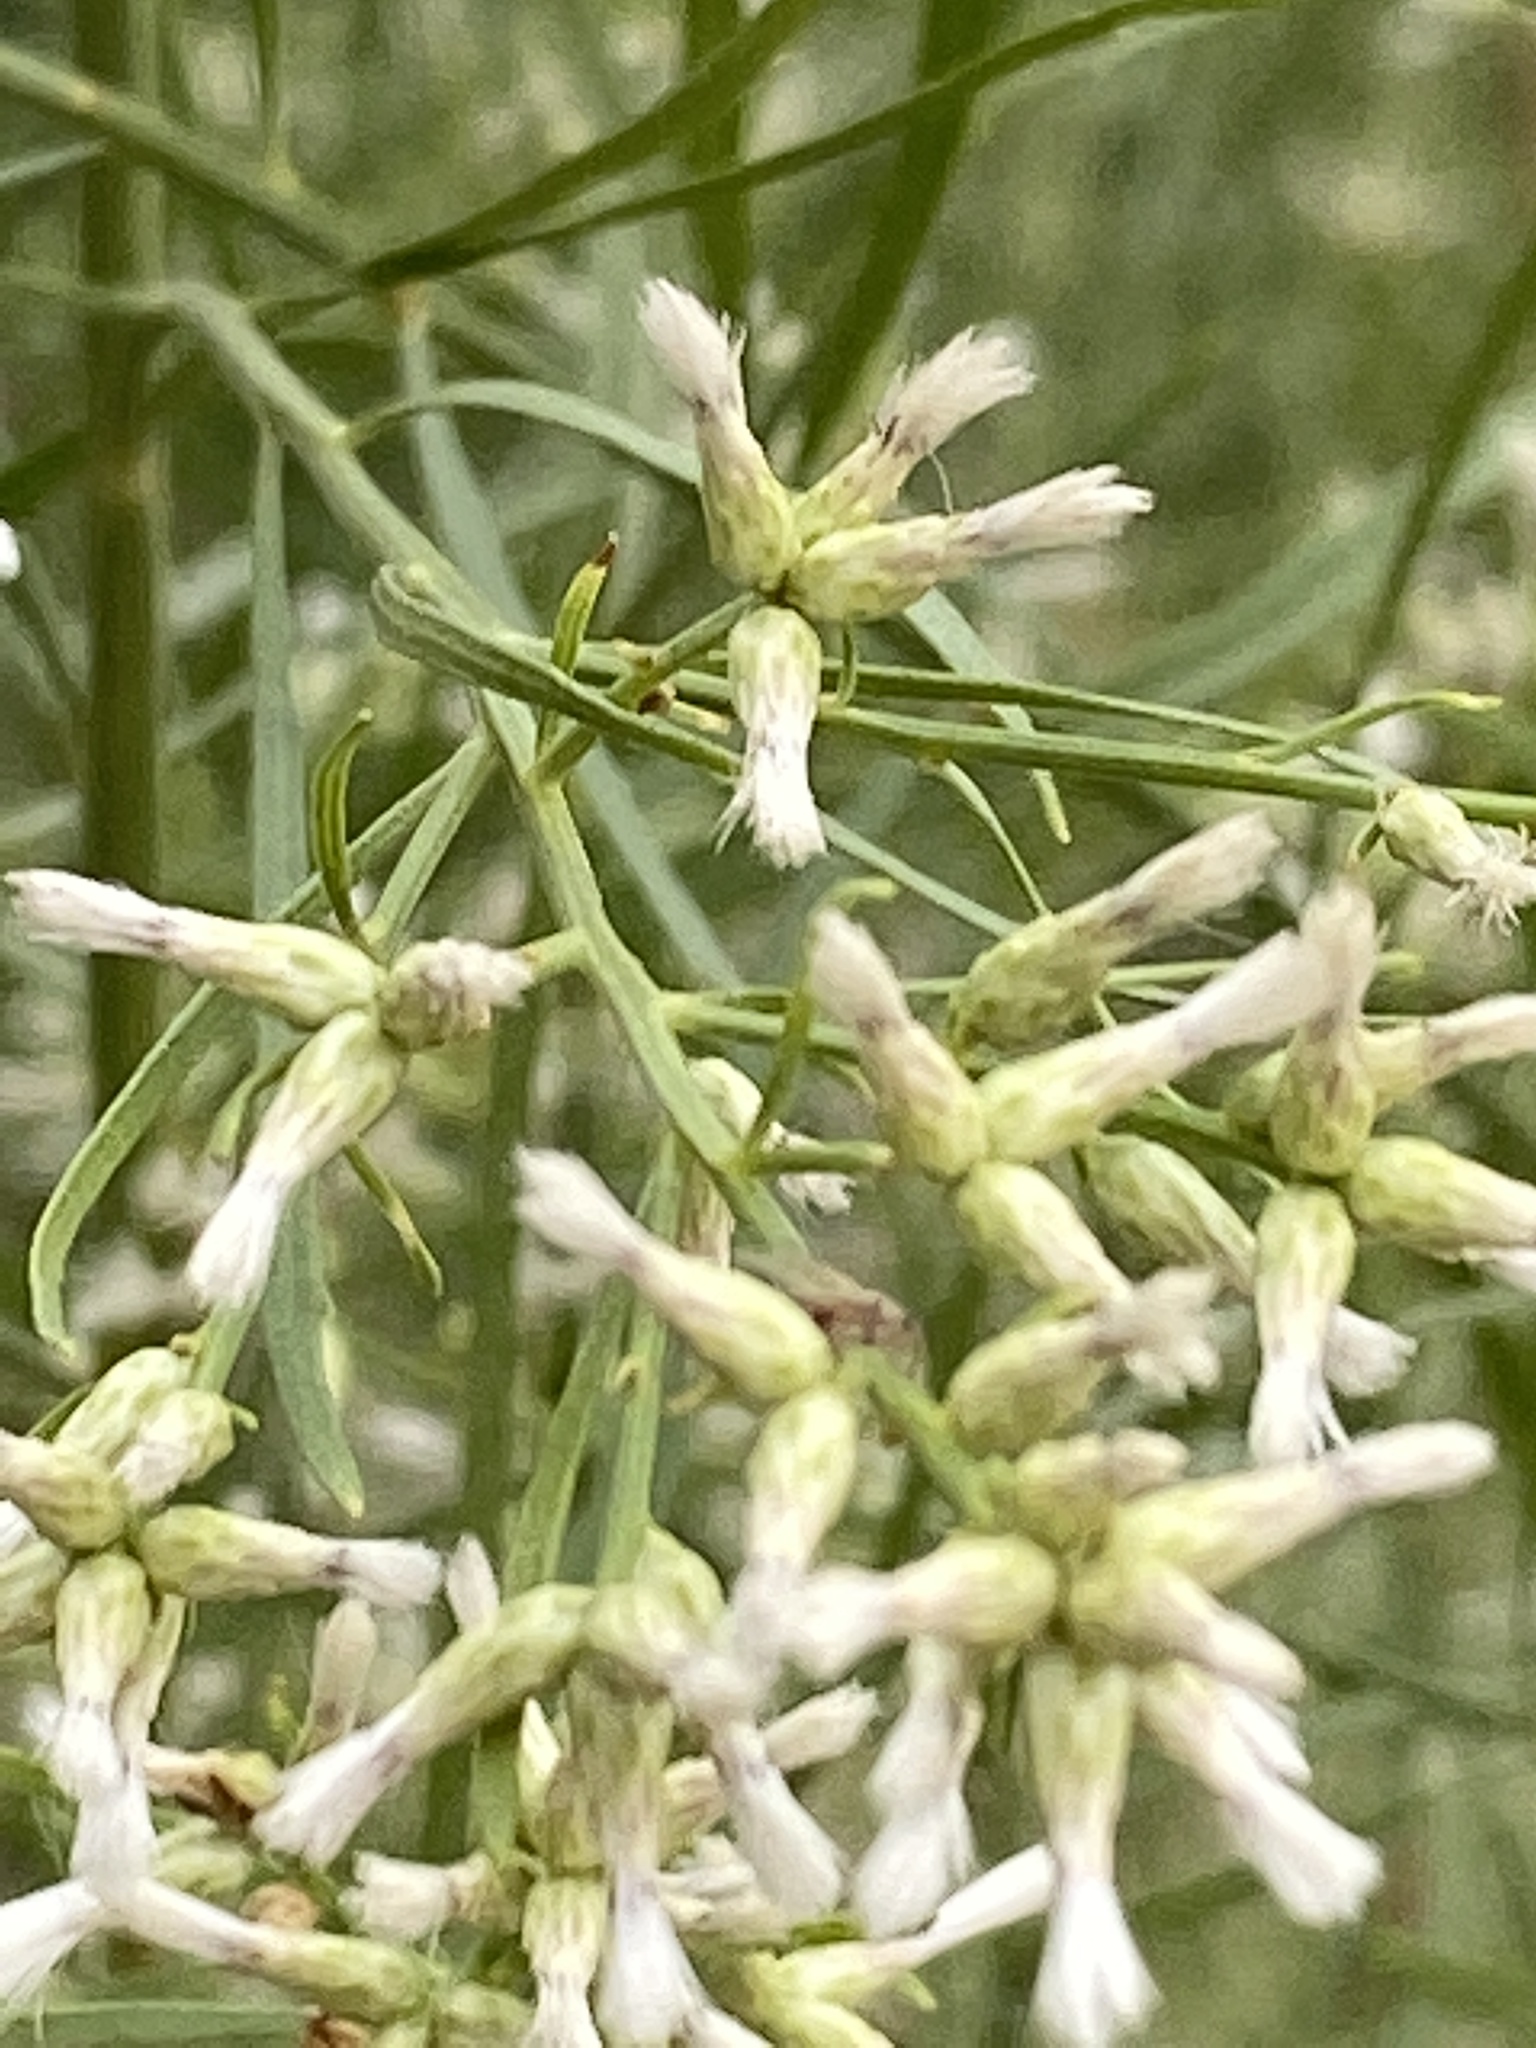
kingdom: Plantae
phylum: Tracheophyta
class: Magnoliopsida
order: Asterales
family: Asteraceae
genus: Baccharis
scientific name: Baccharis neglecta
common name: Roosevelt-weed
